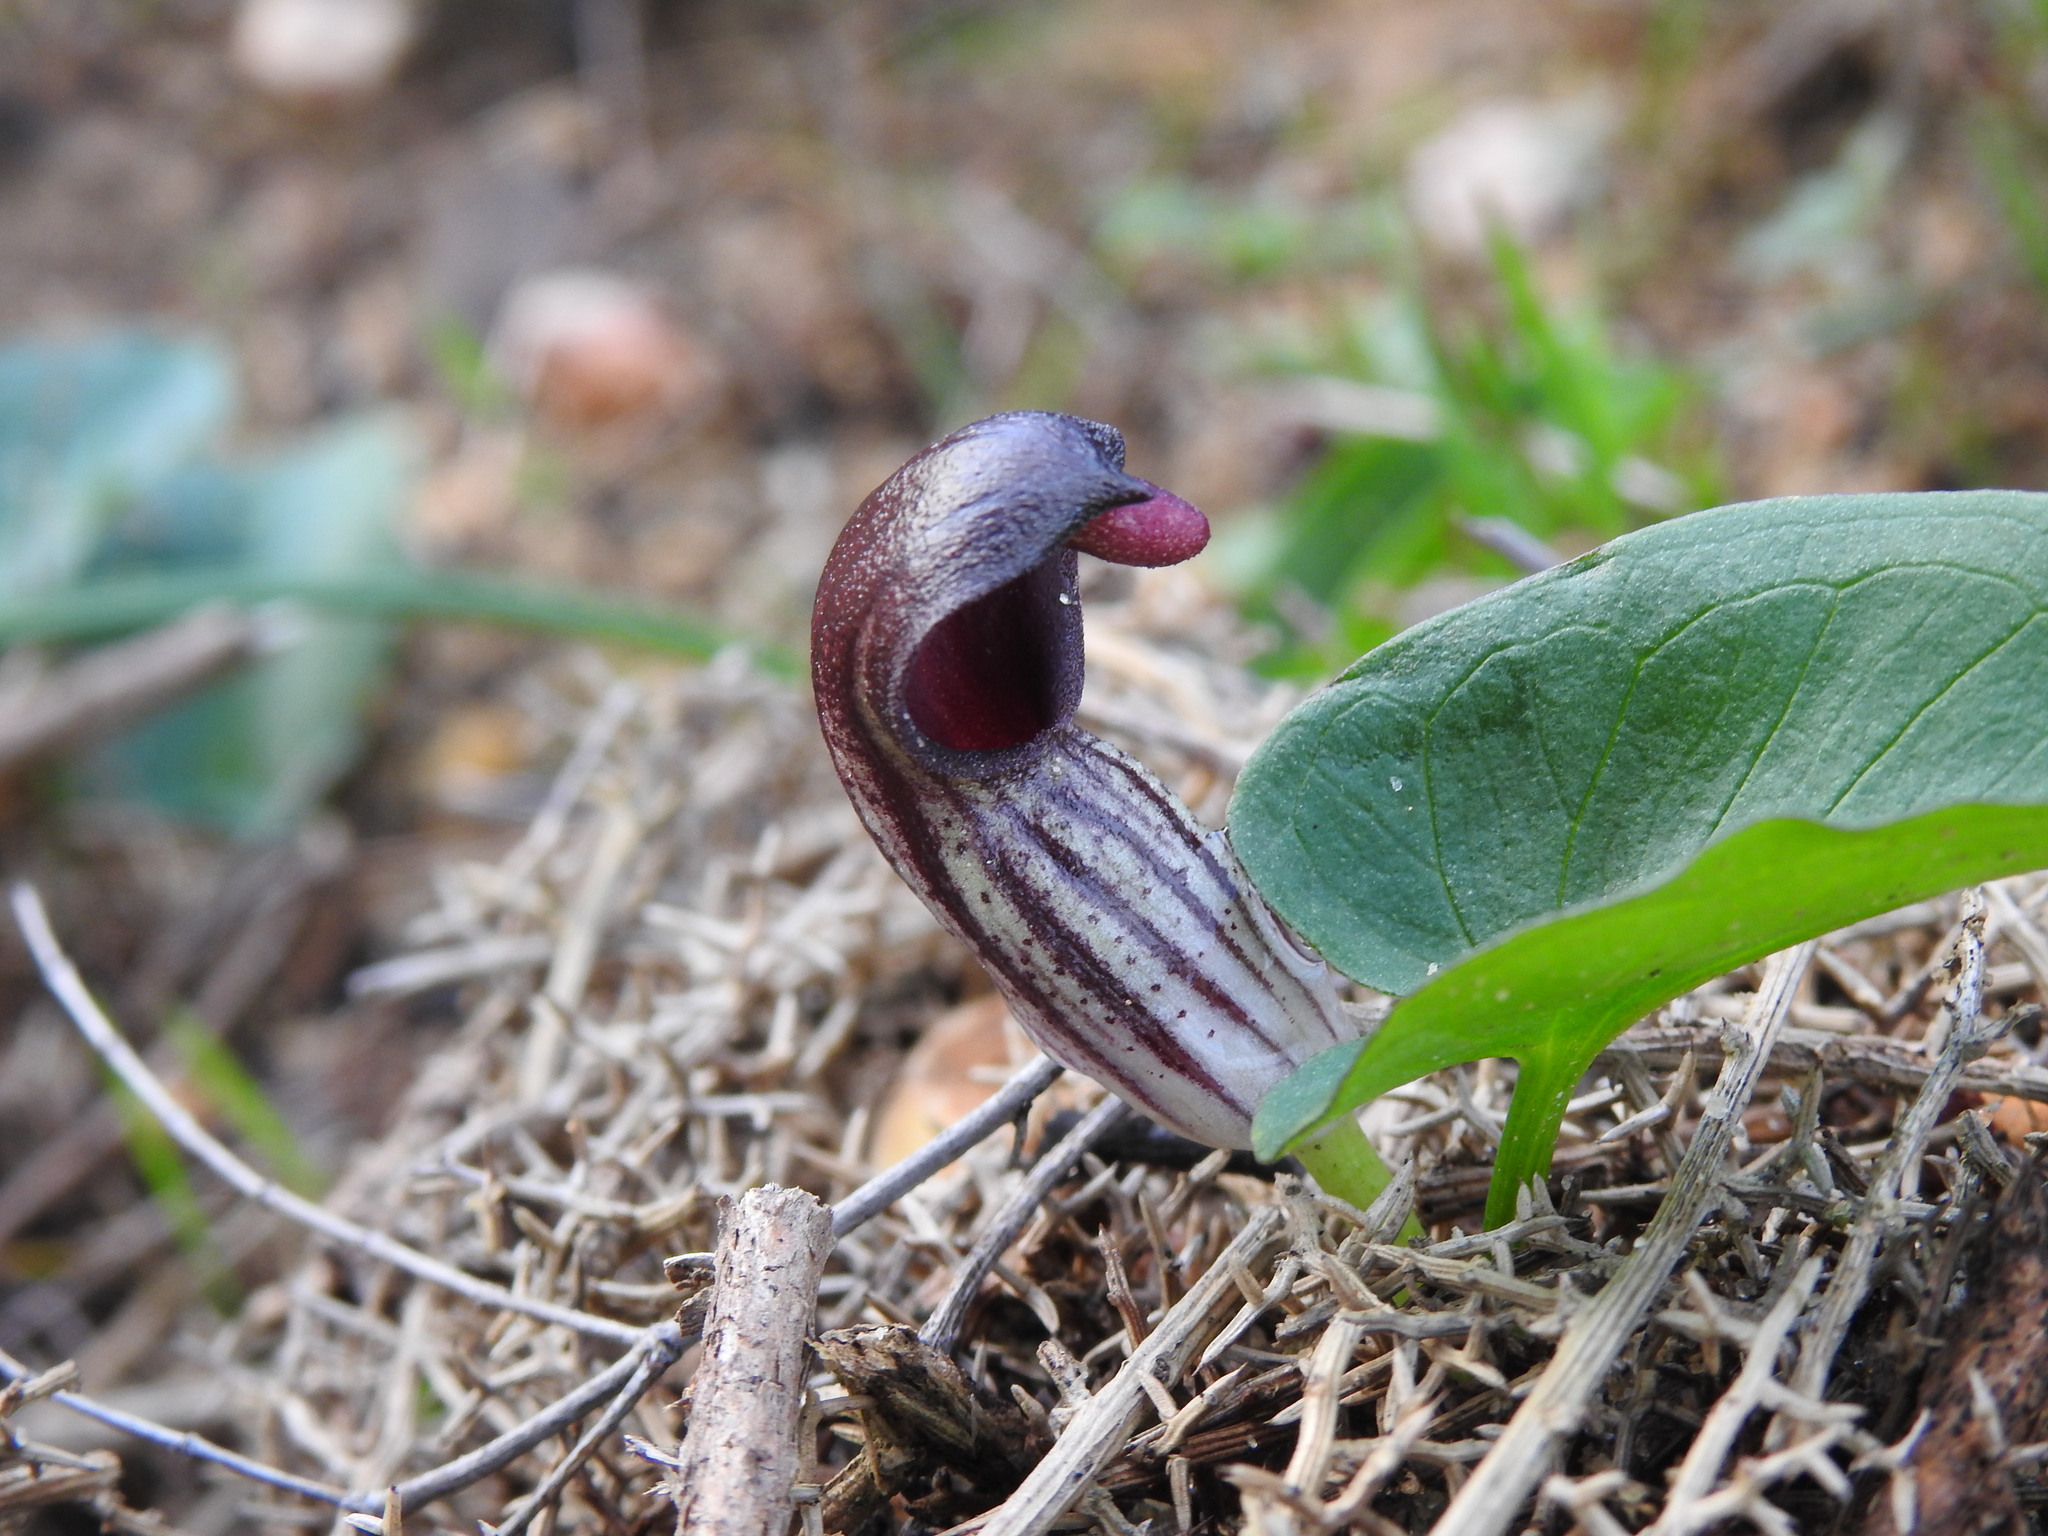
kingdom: Plantae
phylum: Tracheophyta
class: Liliopsida
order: Alismatales
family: Araceae
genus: Arisarum
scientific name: Arisarum simorrhinum
